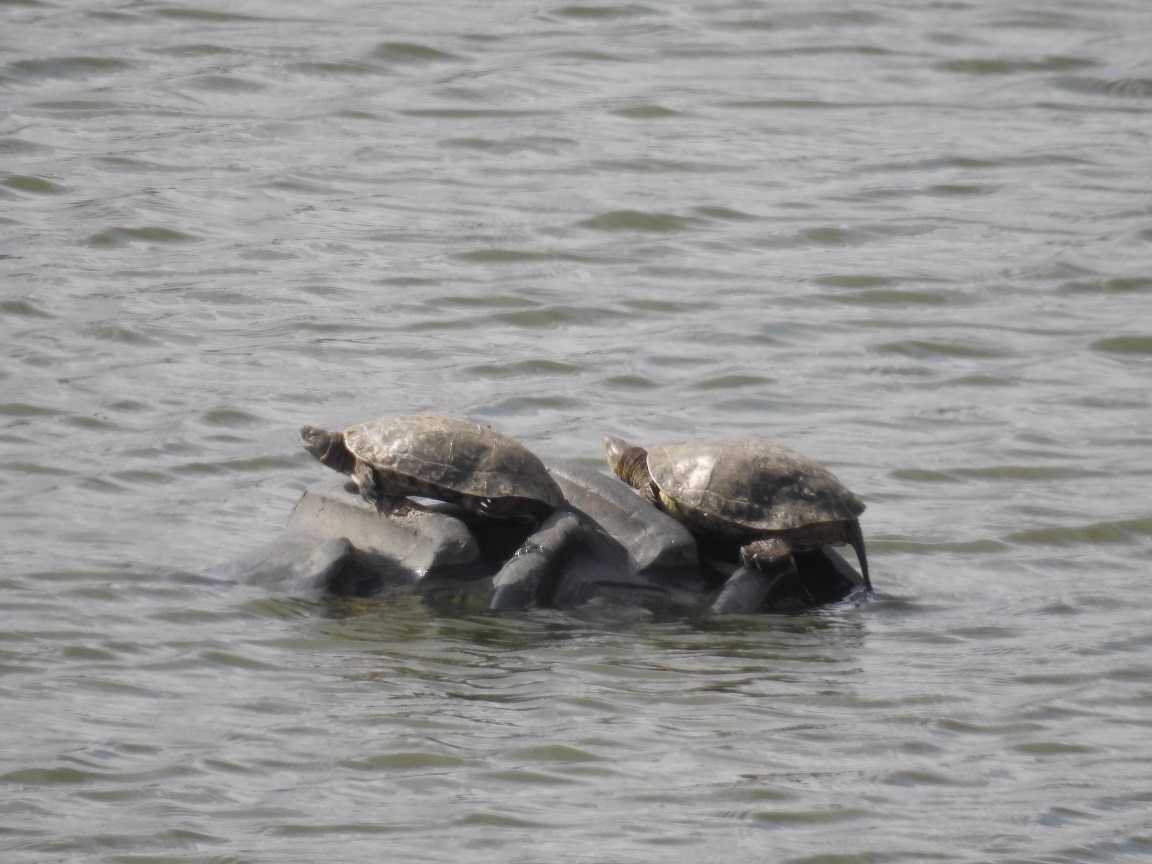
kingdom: Animalia
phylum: Chordata
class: Testudines
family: Geoemydidae
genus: Mauremys
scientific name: Mauremys leprosa
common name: Mediterranean pond turtle
